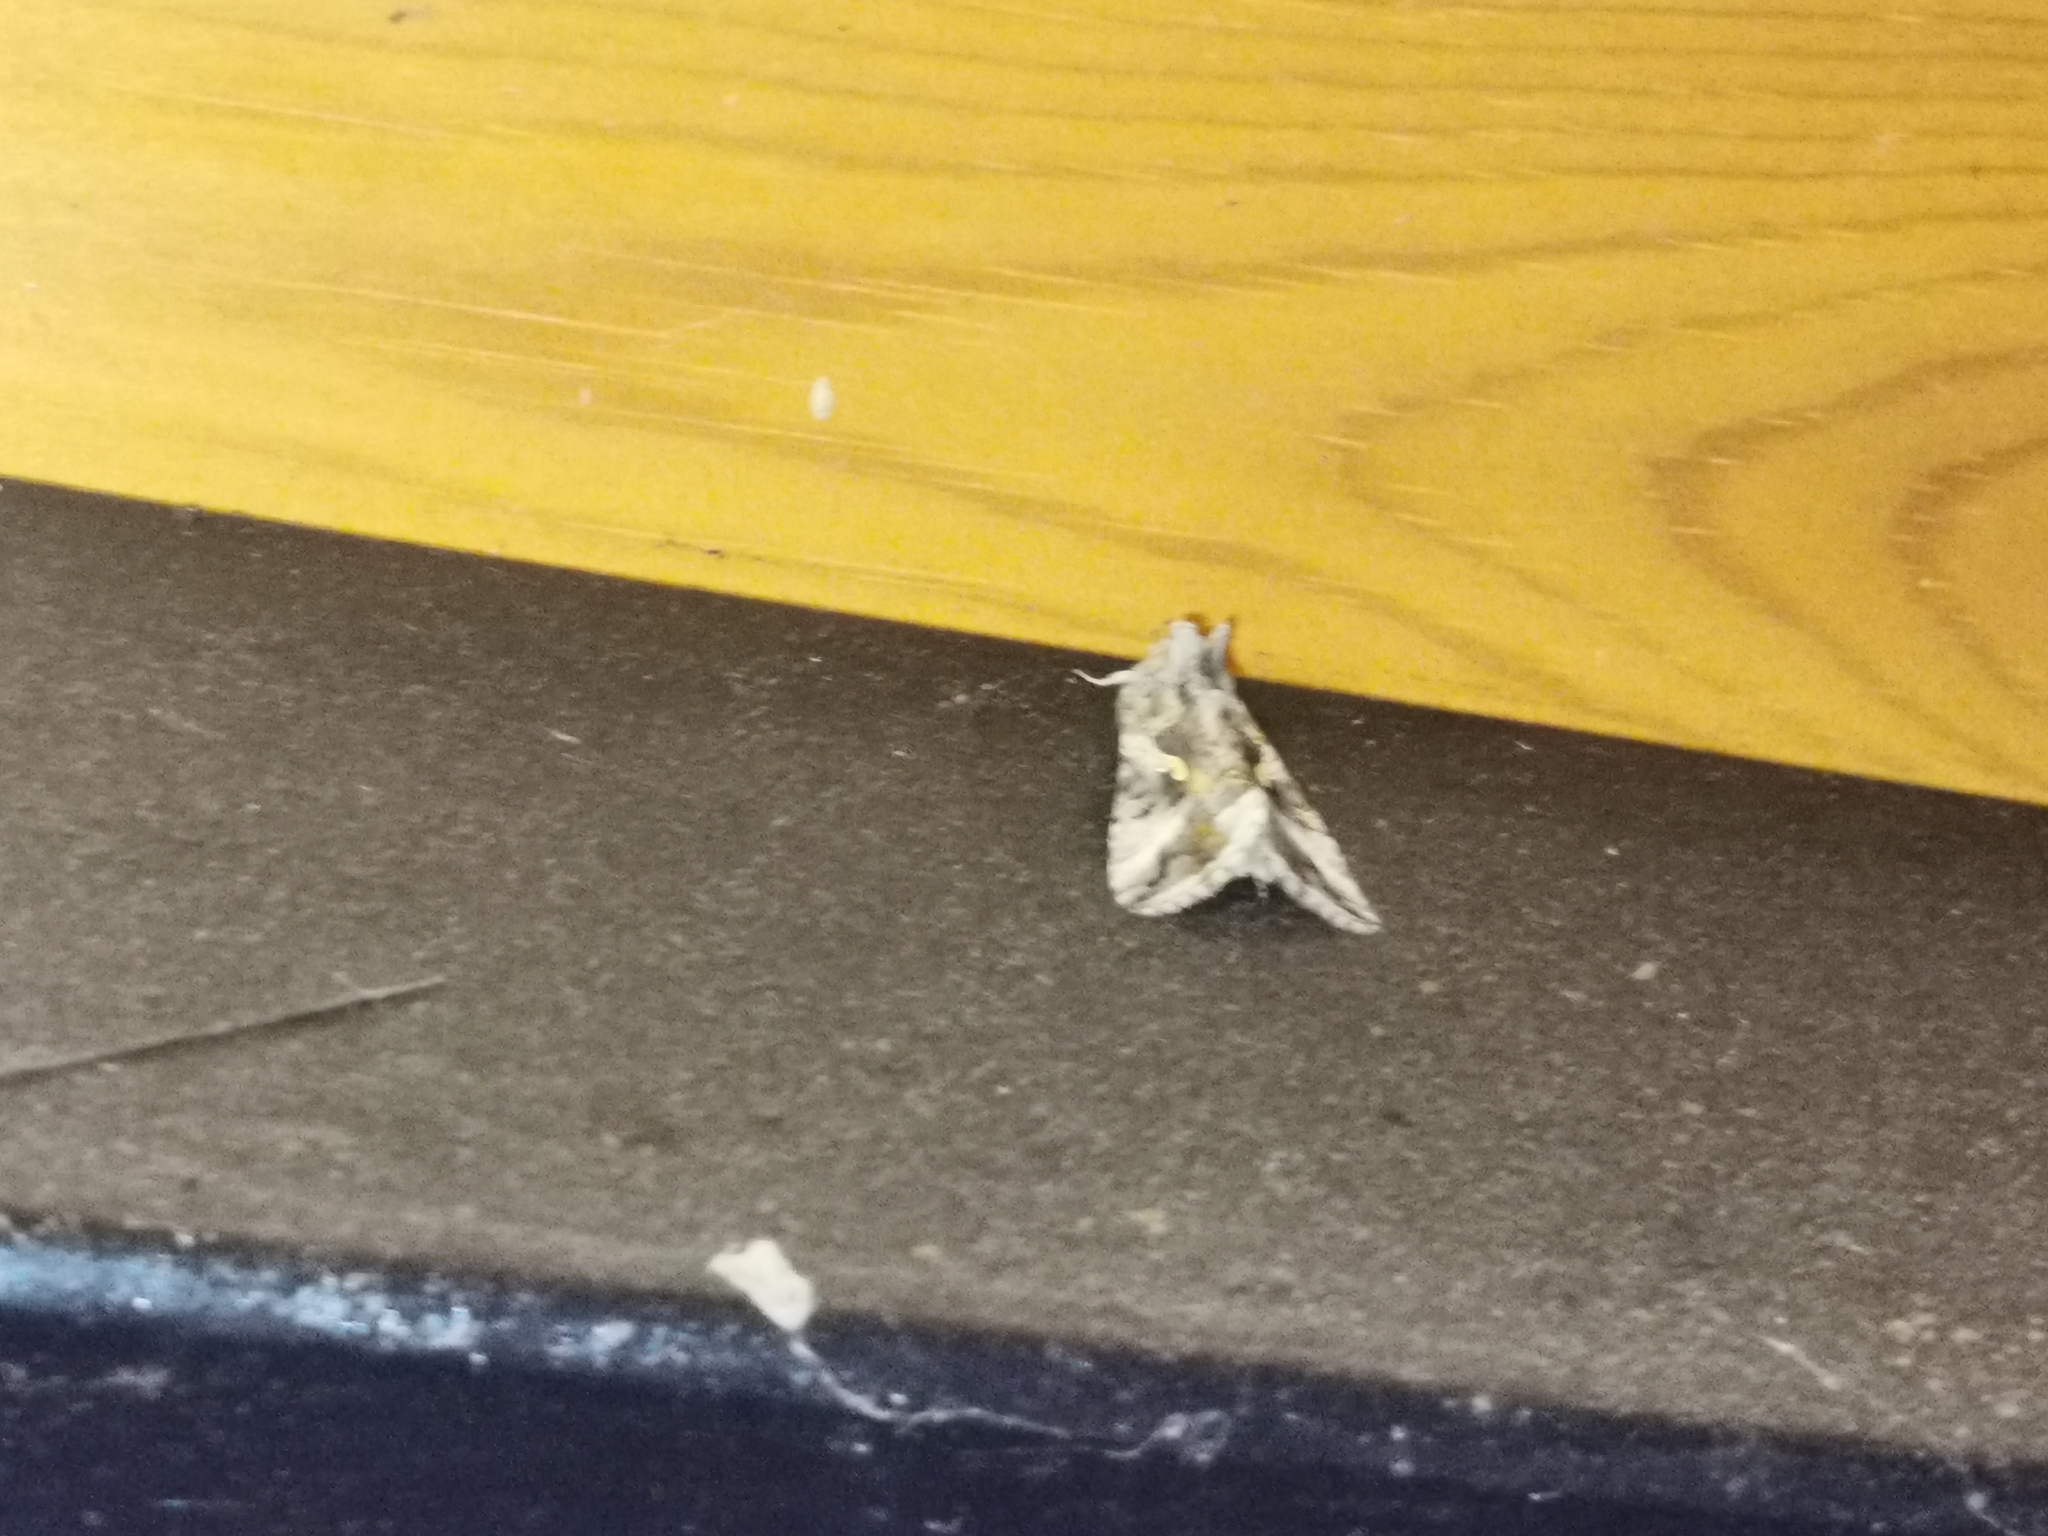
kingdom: Animalia
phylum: Arthropoda
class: Insecta
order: Lepidoptera
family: Noctuidae
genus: Autographa
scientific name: Autographa gamma
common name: Silver y
